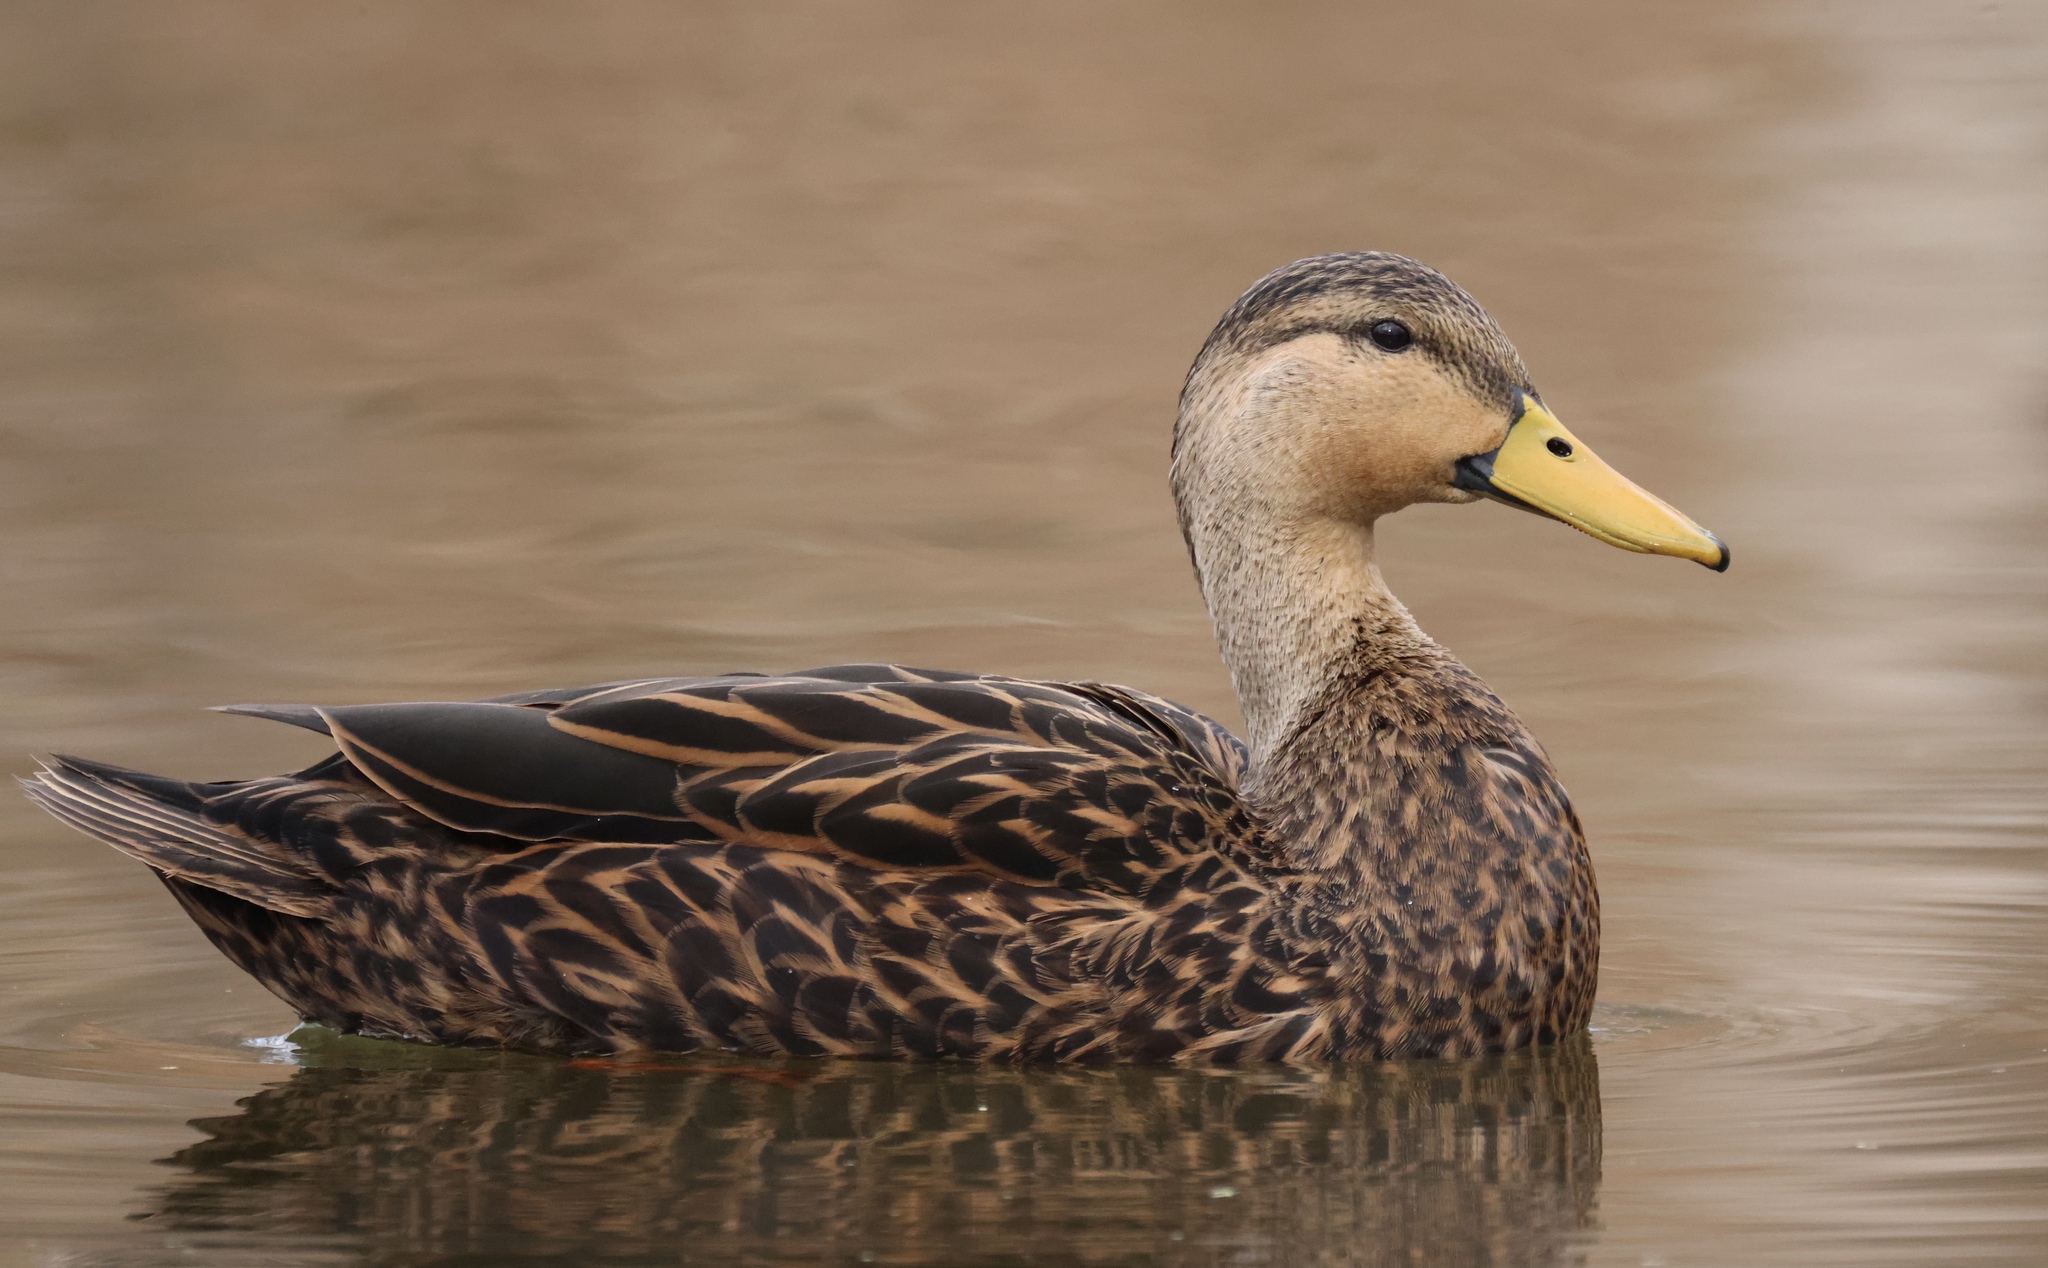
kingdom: Animalia
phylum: Chordata
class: Aves
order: Anseriformes
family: Anatidae
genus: Anas
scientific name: Anas fulvigula
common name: Mottled duck
